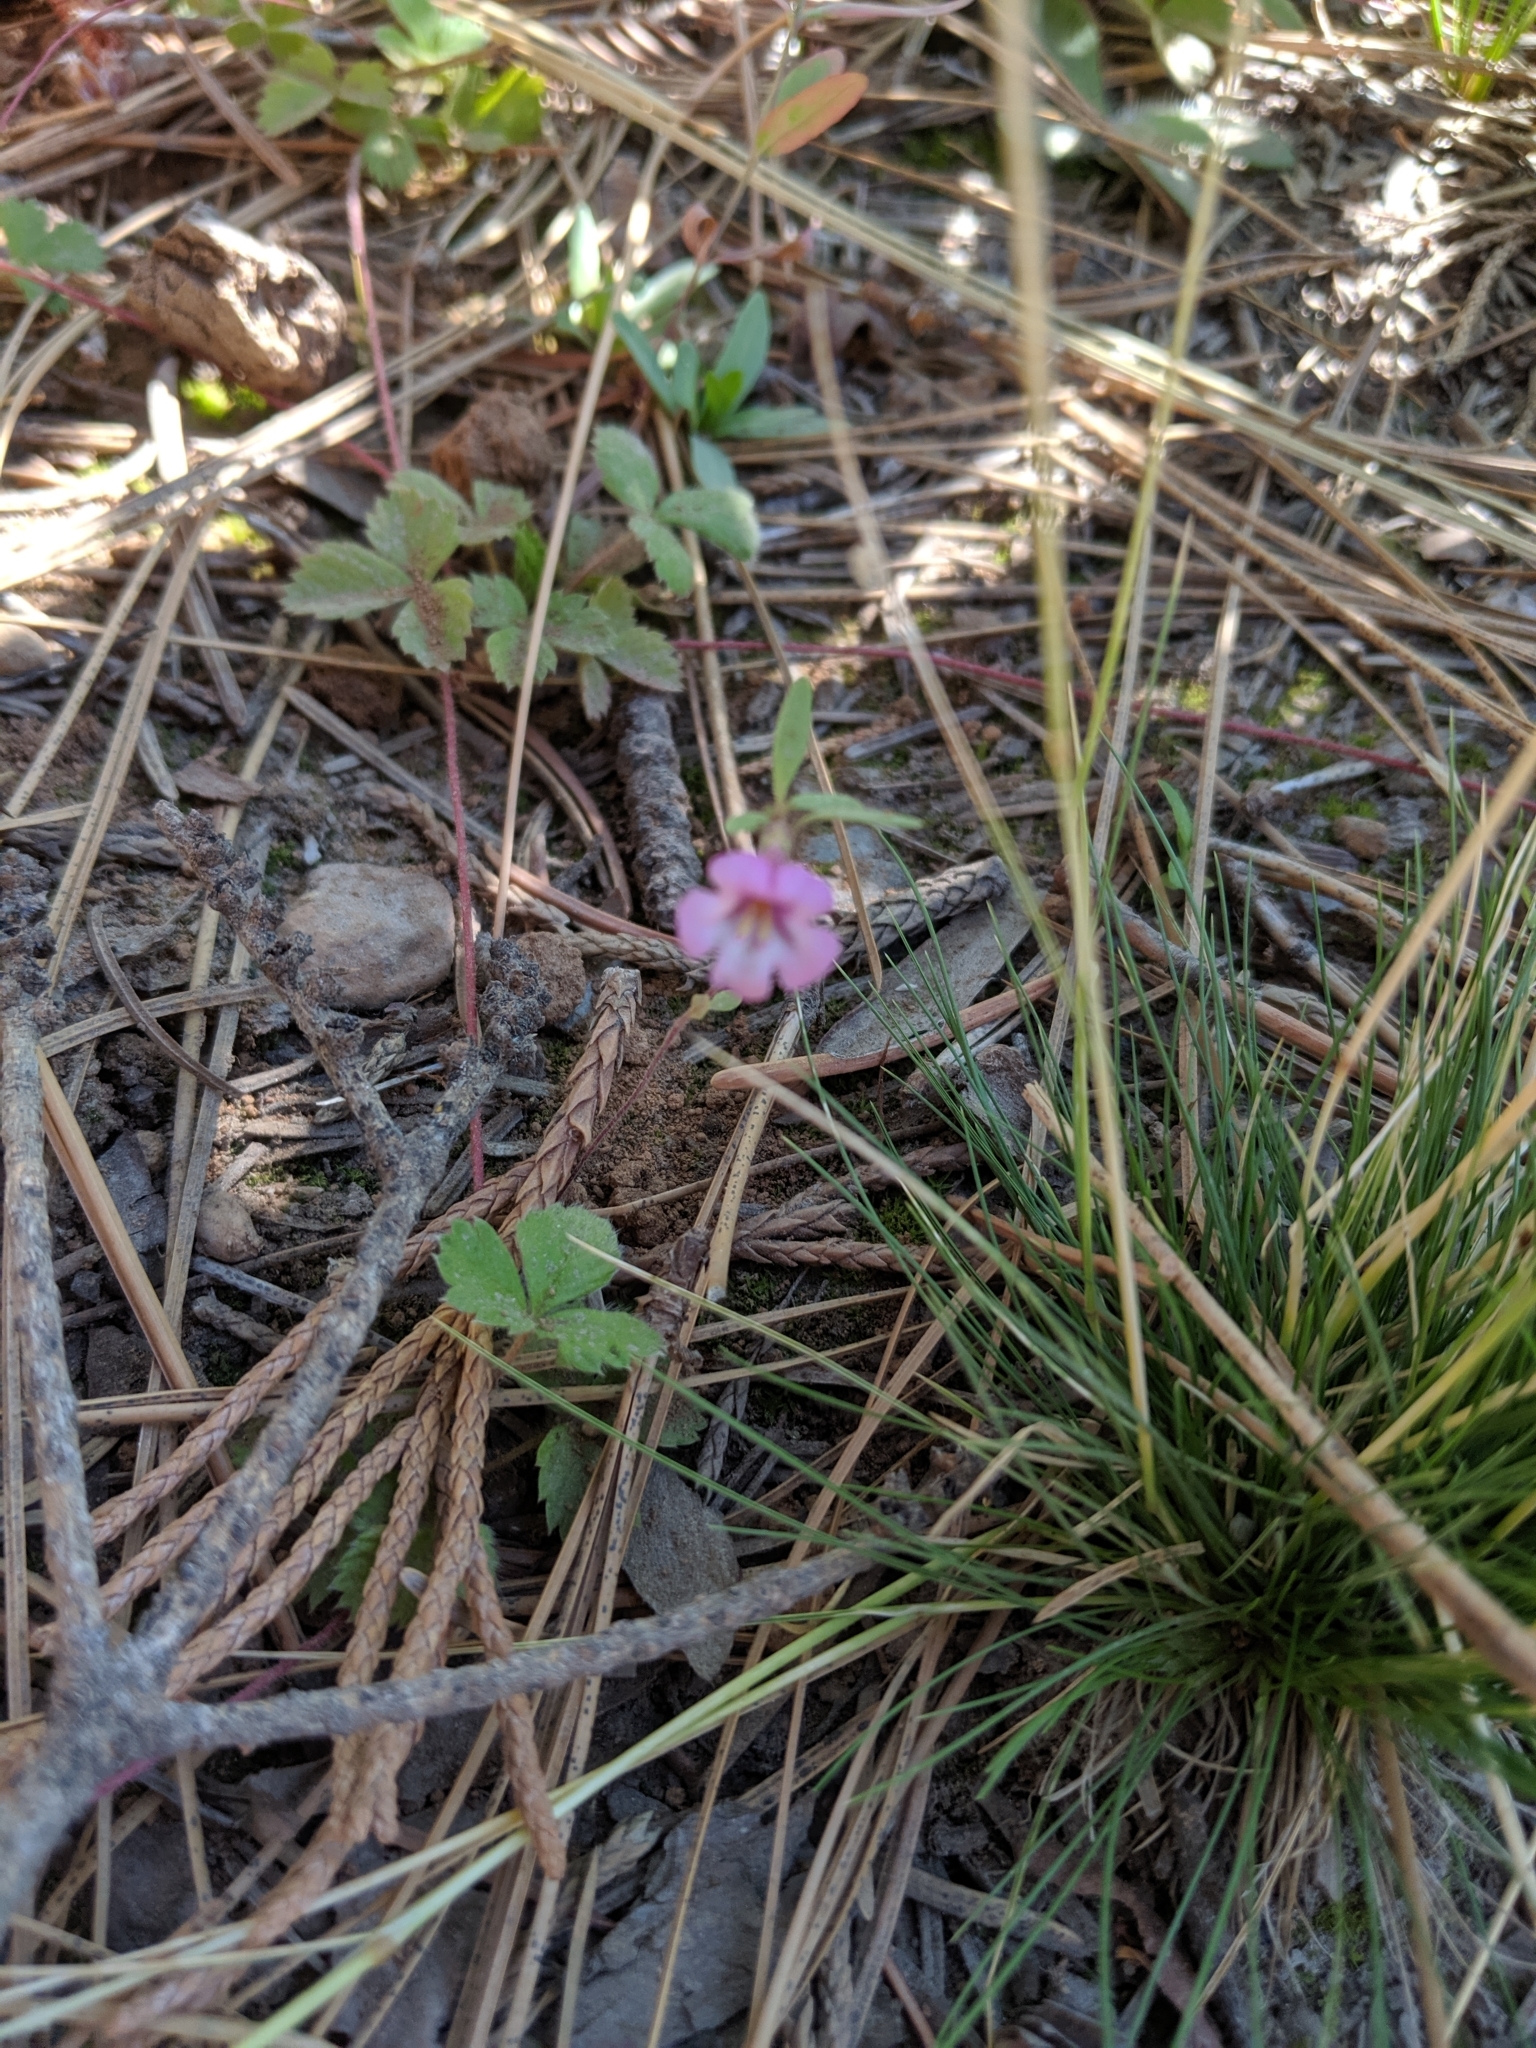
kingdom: Plantae
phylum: Tracheophyta
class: Magnoliopsida
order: Lamiales
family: Phrymaceae
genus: Diplacus
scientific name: Diplacus torreyi
